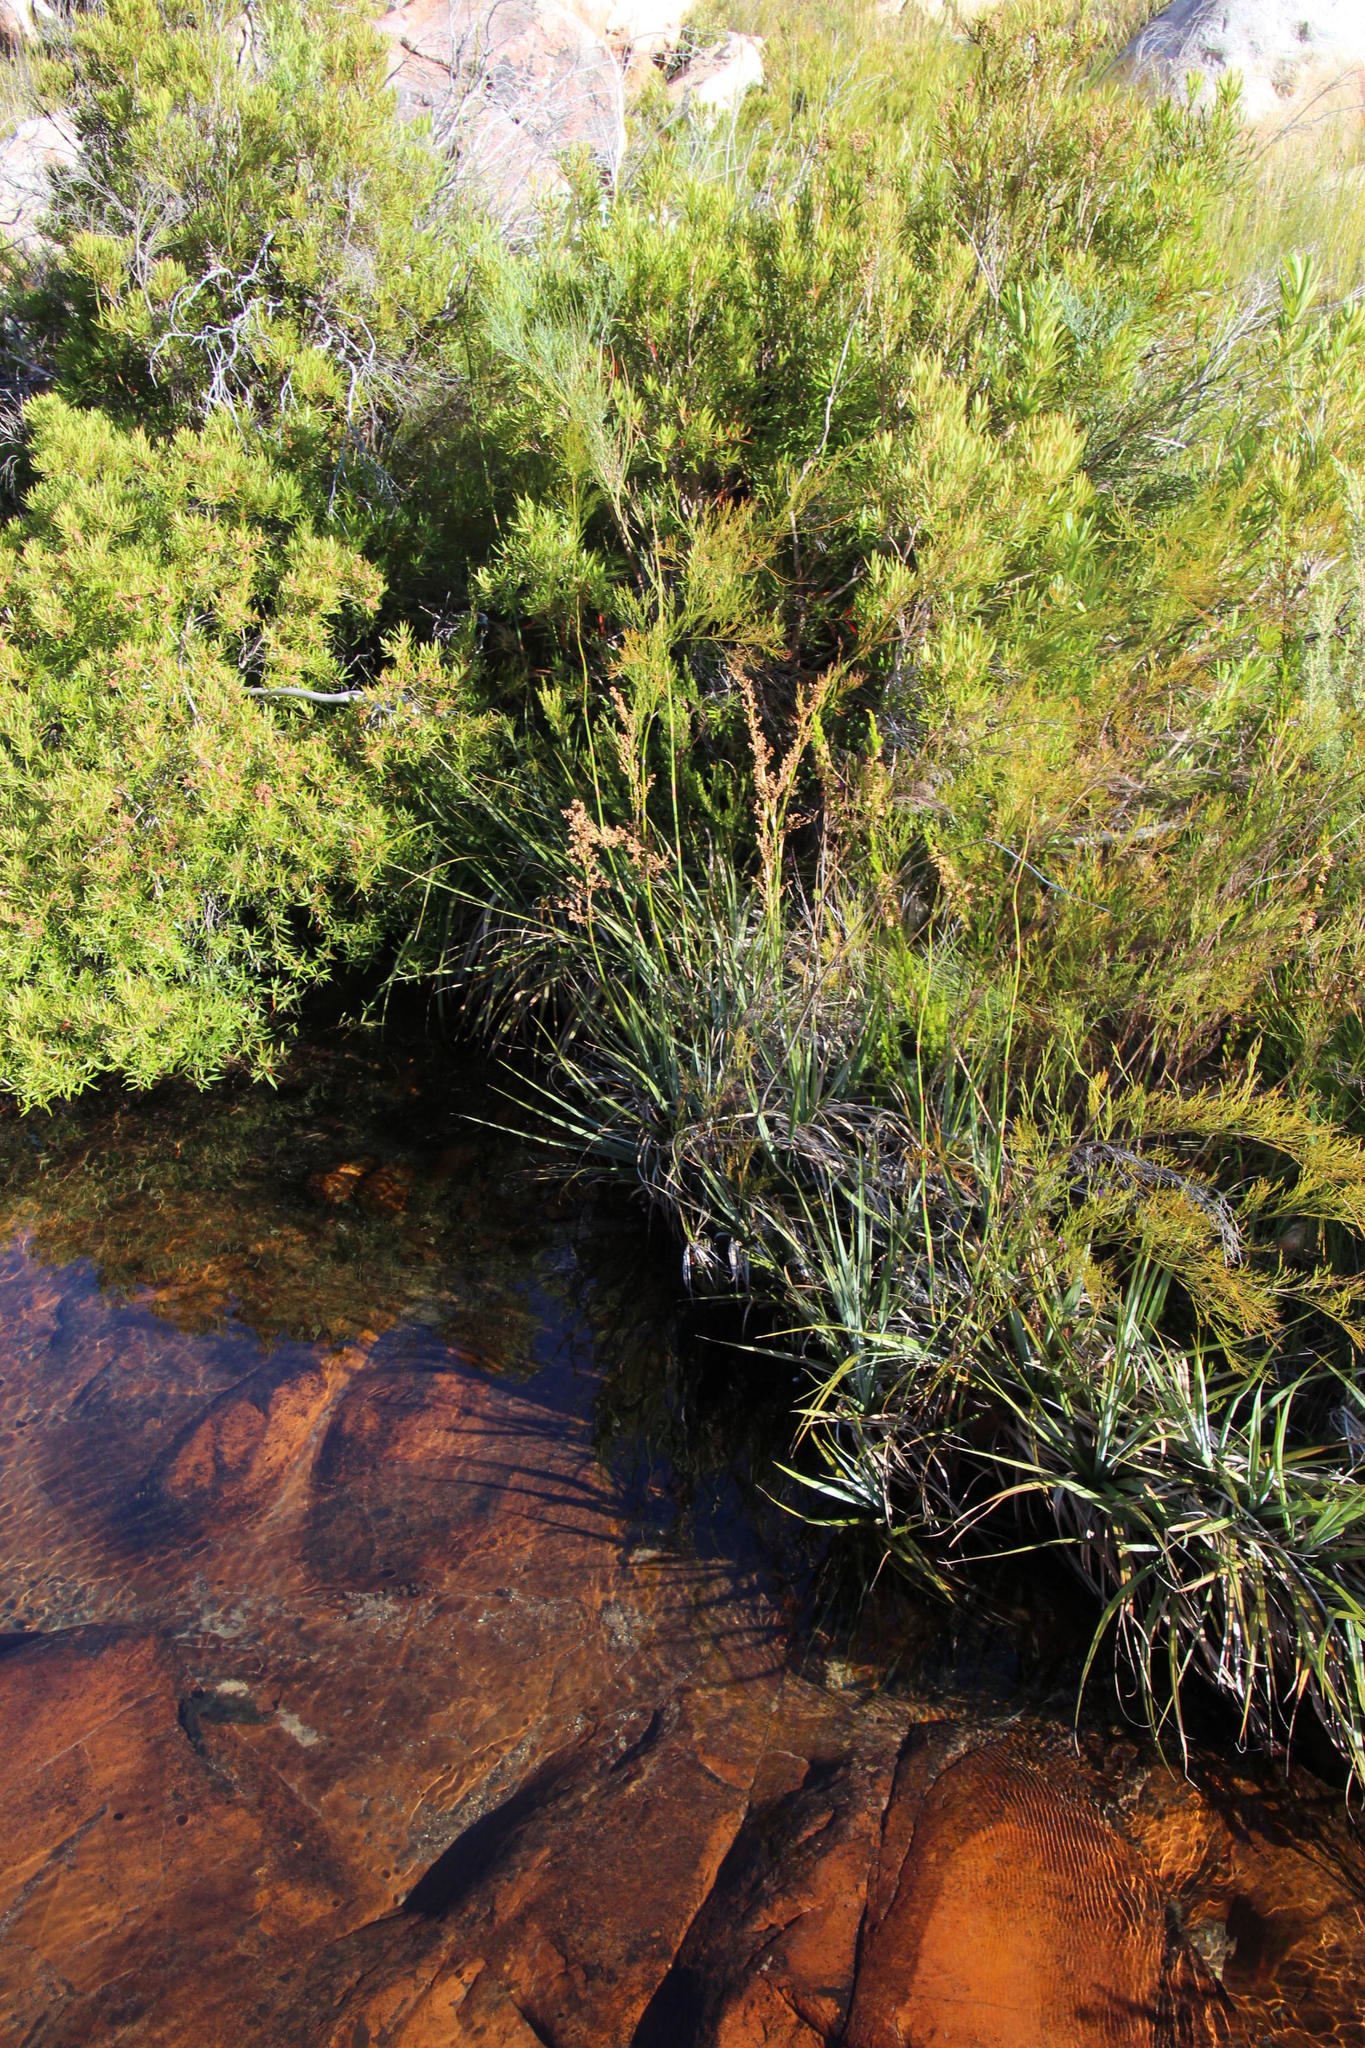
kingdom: Plantae
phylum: Tracheophyta
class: Liliopsida
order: Poales
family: Thurniaceae
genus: Prionium
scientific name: Prionium serratum
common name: Palmiet
